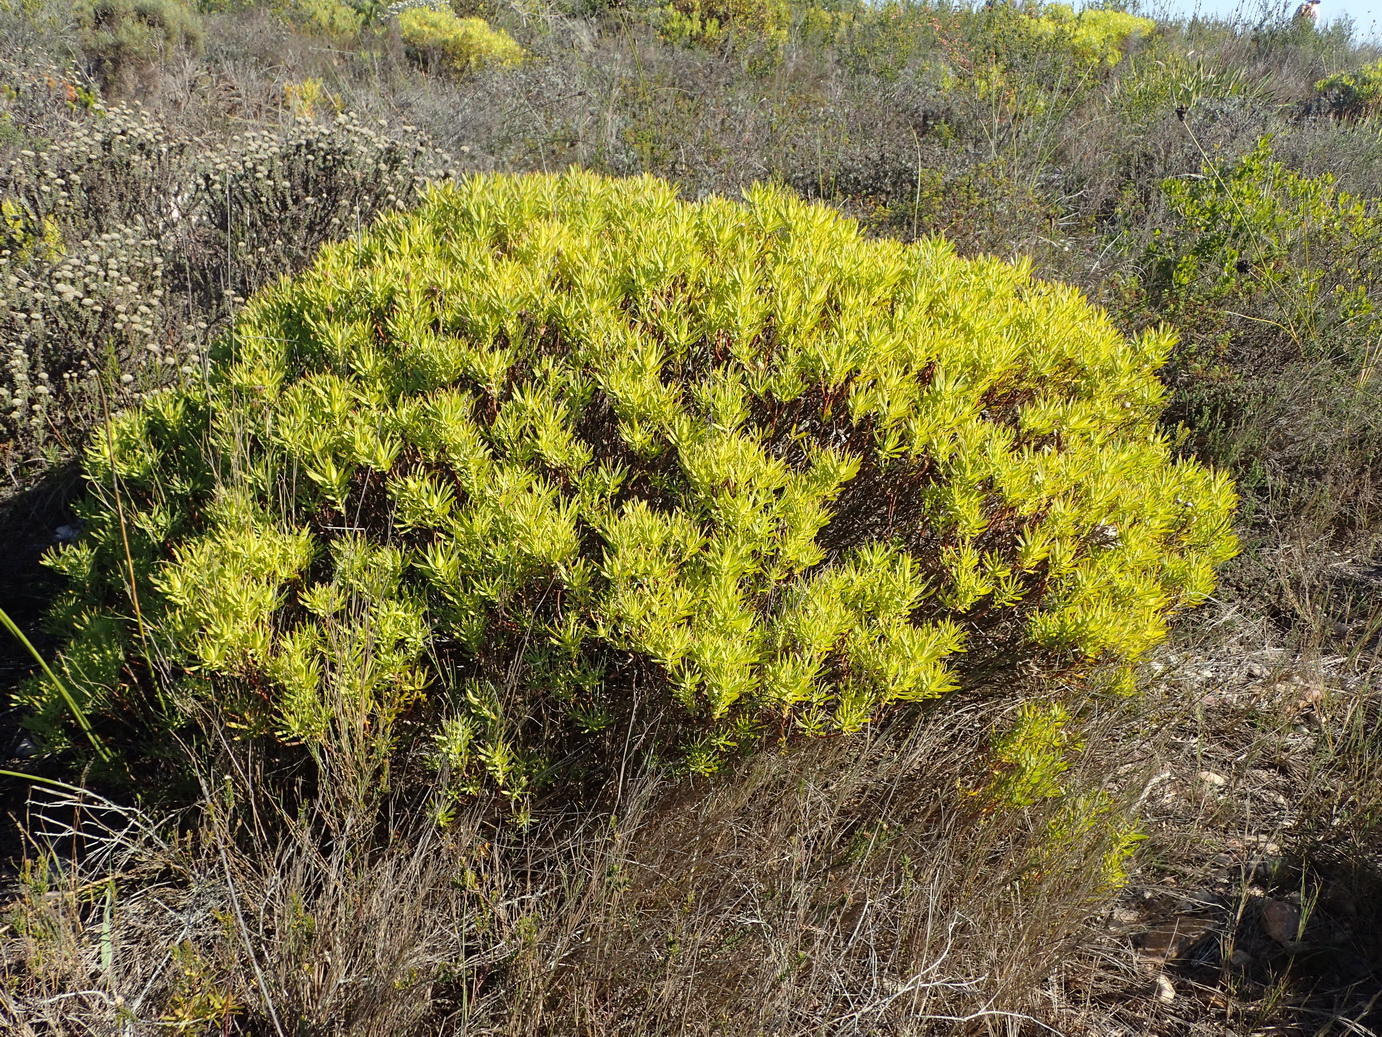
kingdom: Plantae
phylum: Tracheophyta
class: Magnoliopsida
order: Proteales
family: Proteaceae
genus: Leucadendron
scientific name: Leucadendron salignum
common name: Common sunshine conebush
